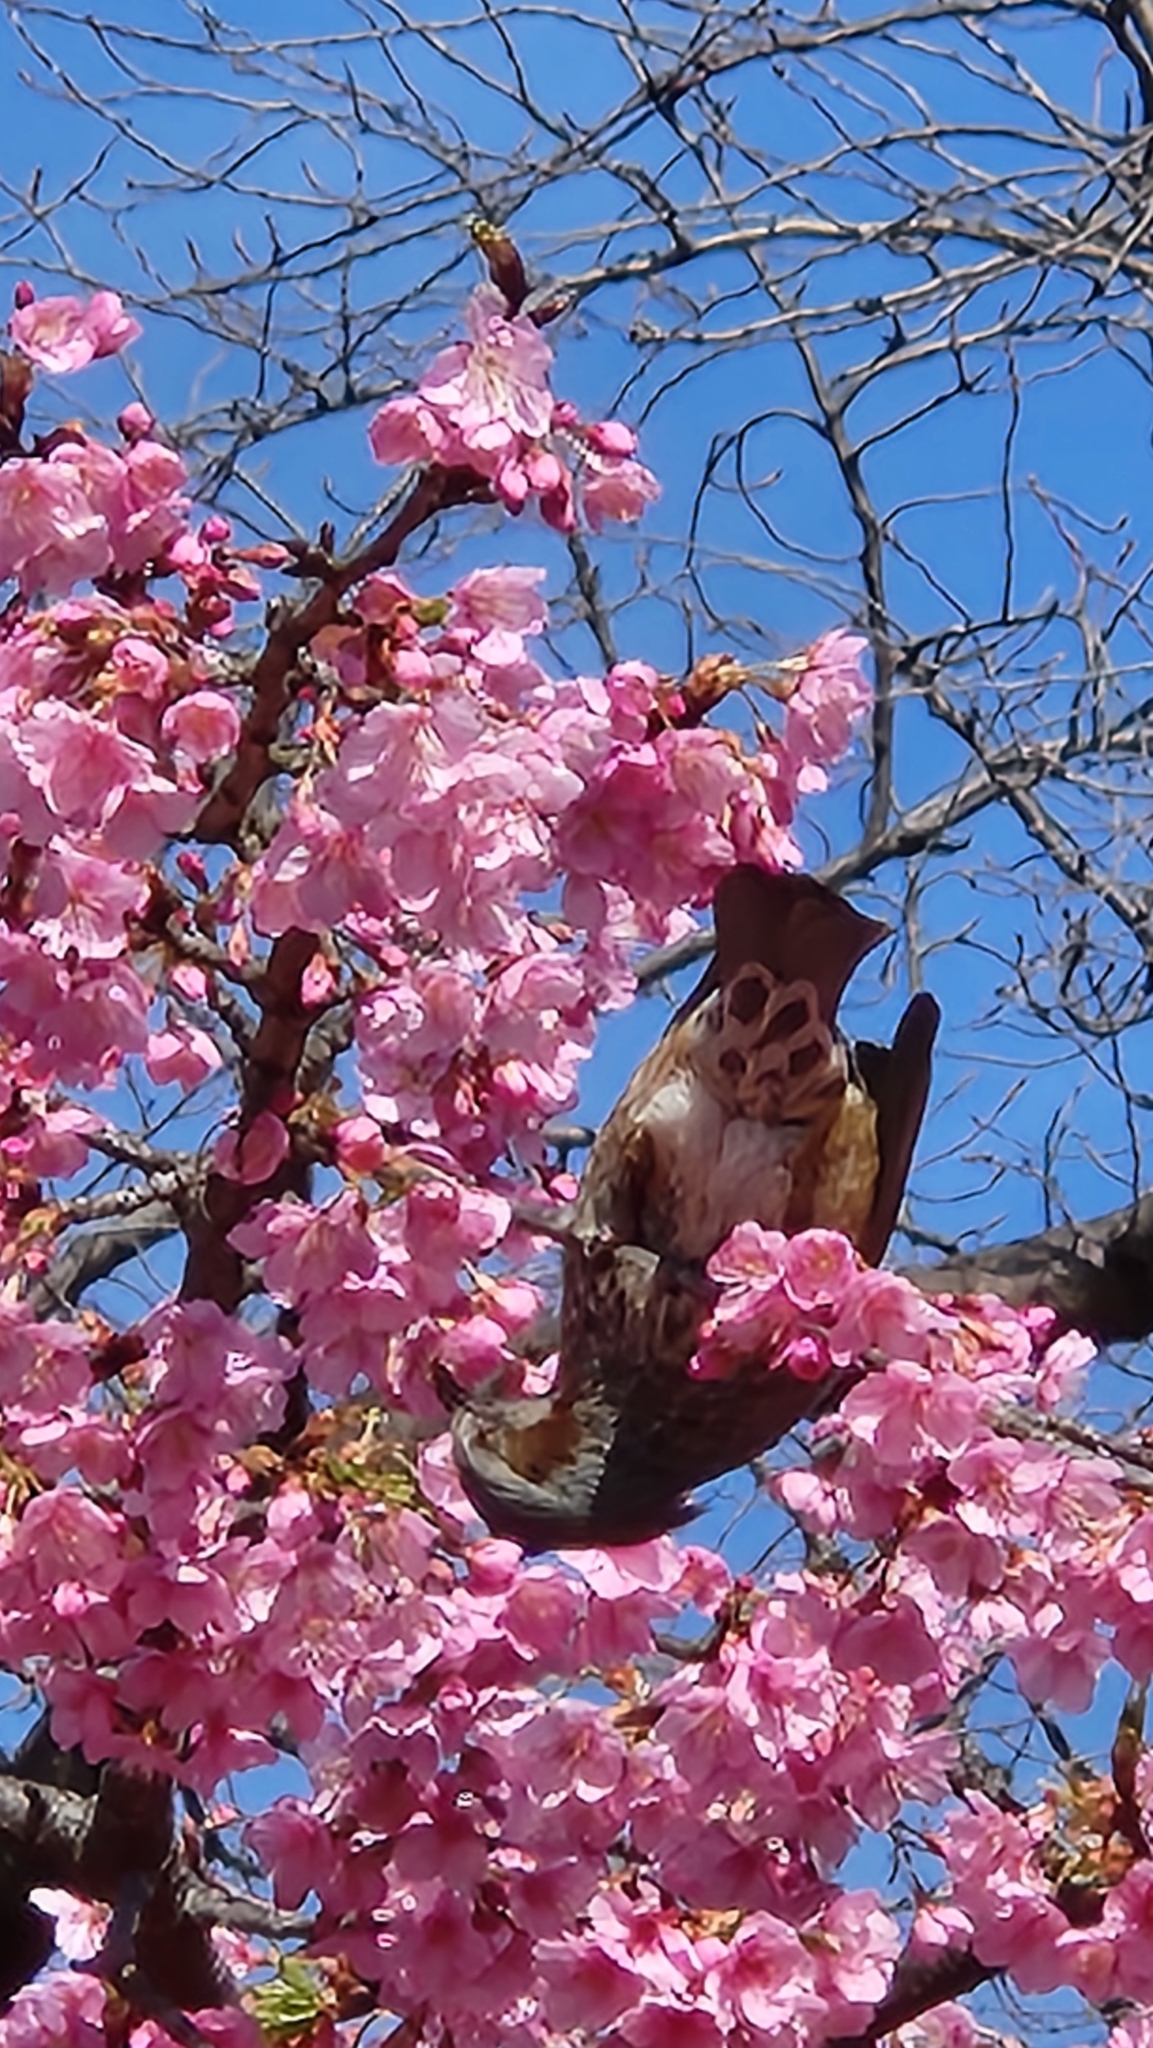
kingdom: Animalia
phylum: Chordata
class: Aves
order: Passeriformes
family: Pycnonotidae
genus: Hypsipetes
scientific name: Hypsipetes amaurotis
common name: Brown-eared bulbul
